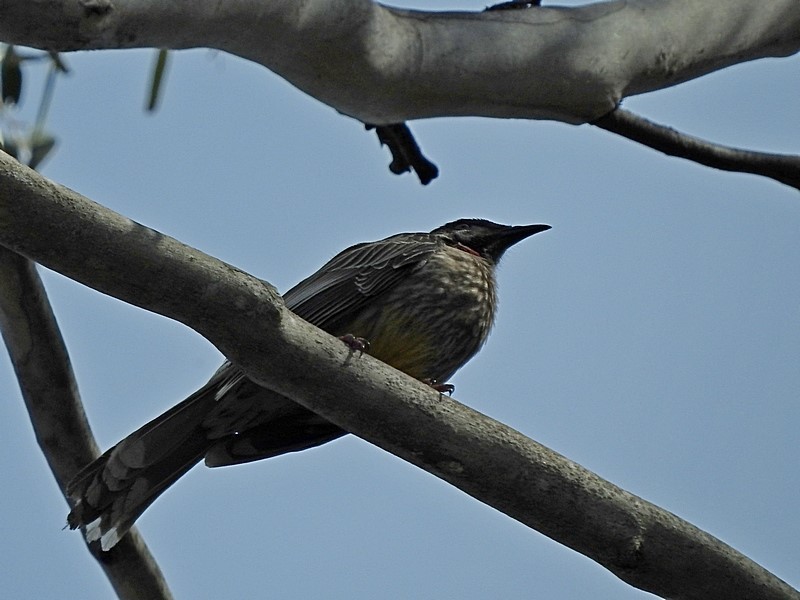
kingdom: Animalia
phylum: Chordata
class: Aves
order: Passeriformes
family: Meliphagidae
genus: Anthochaera
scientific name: Anthochaera carunculata
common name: Red wattlebird
